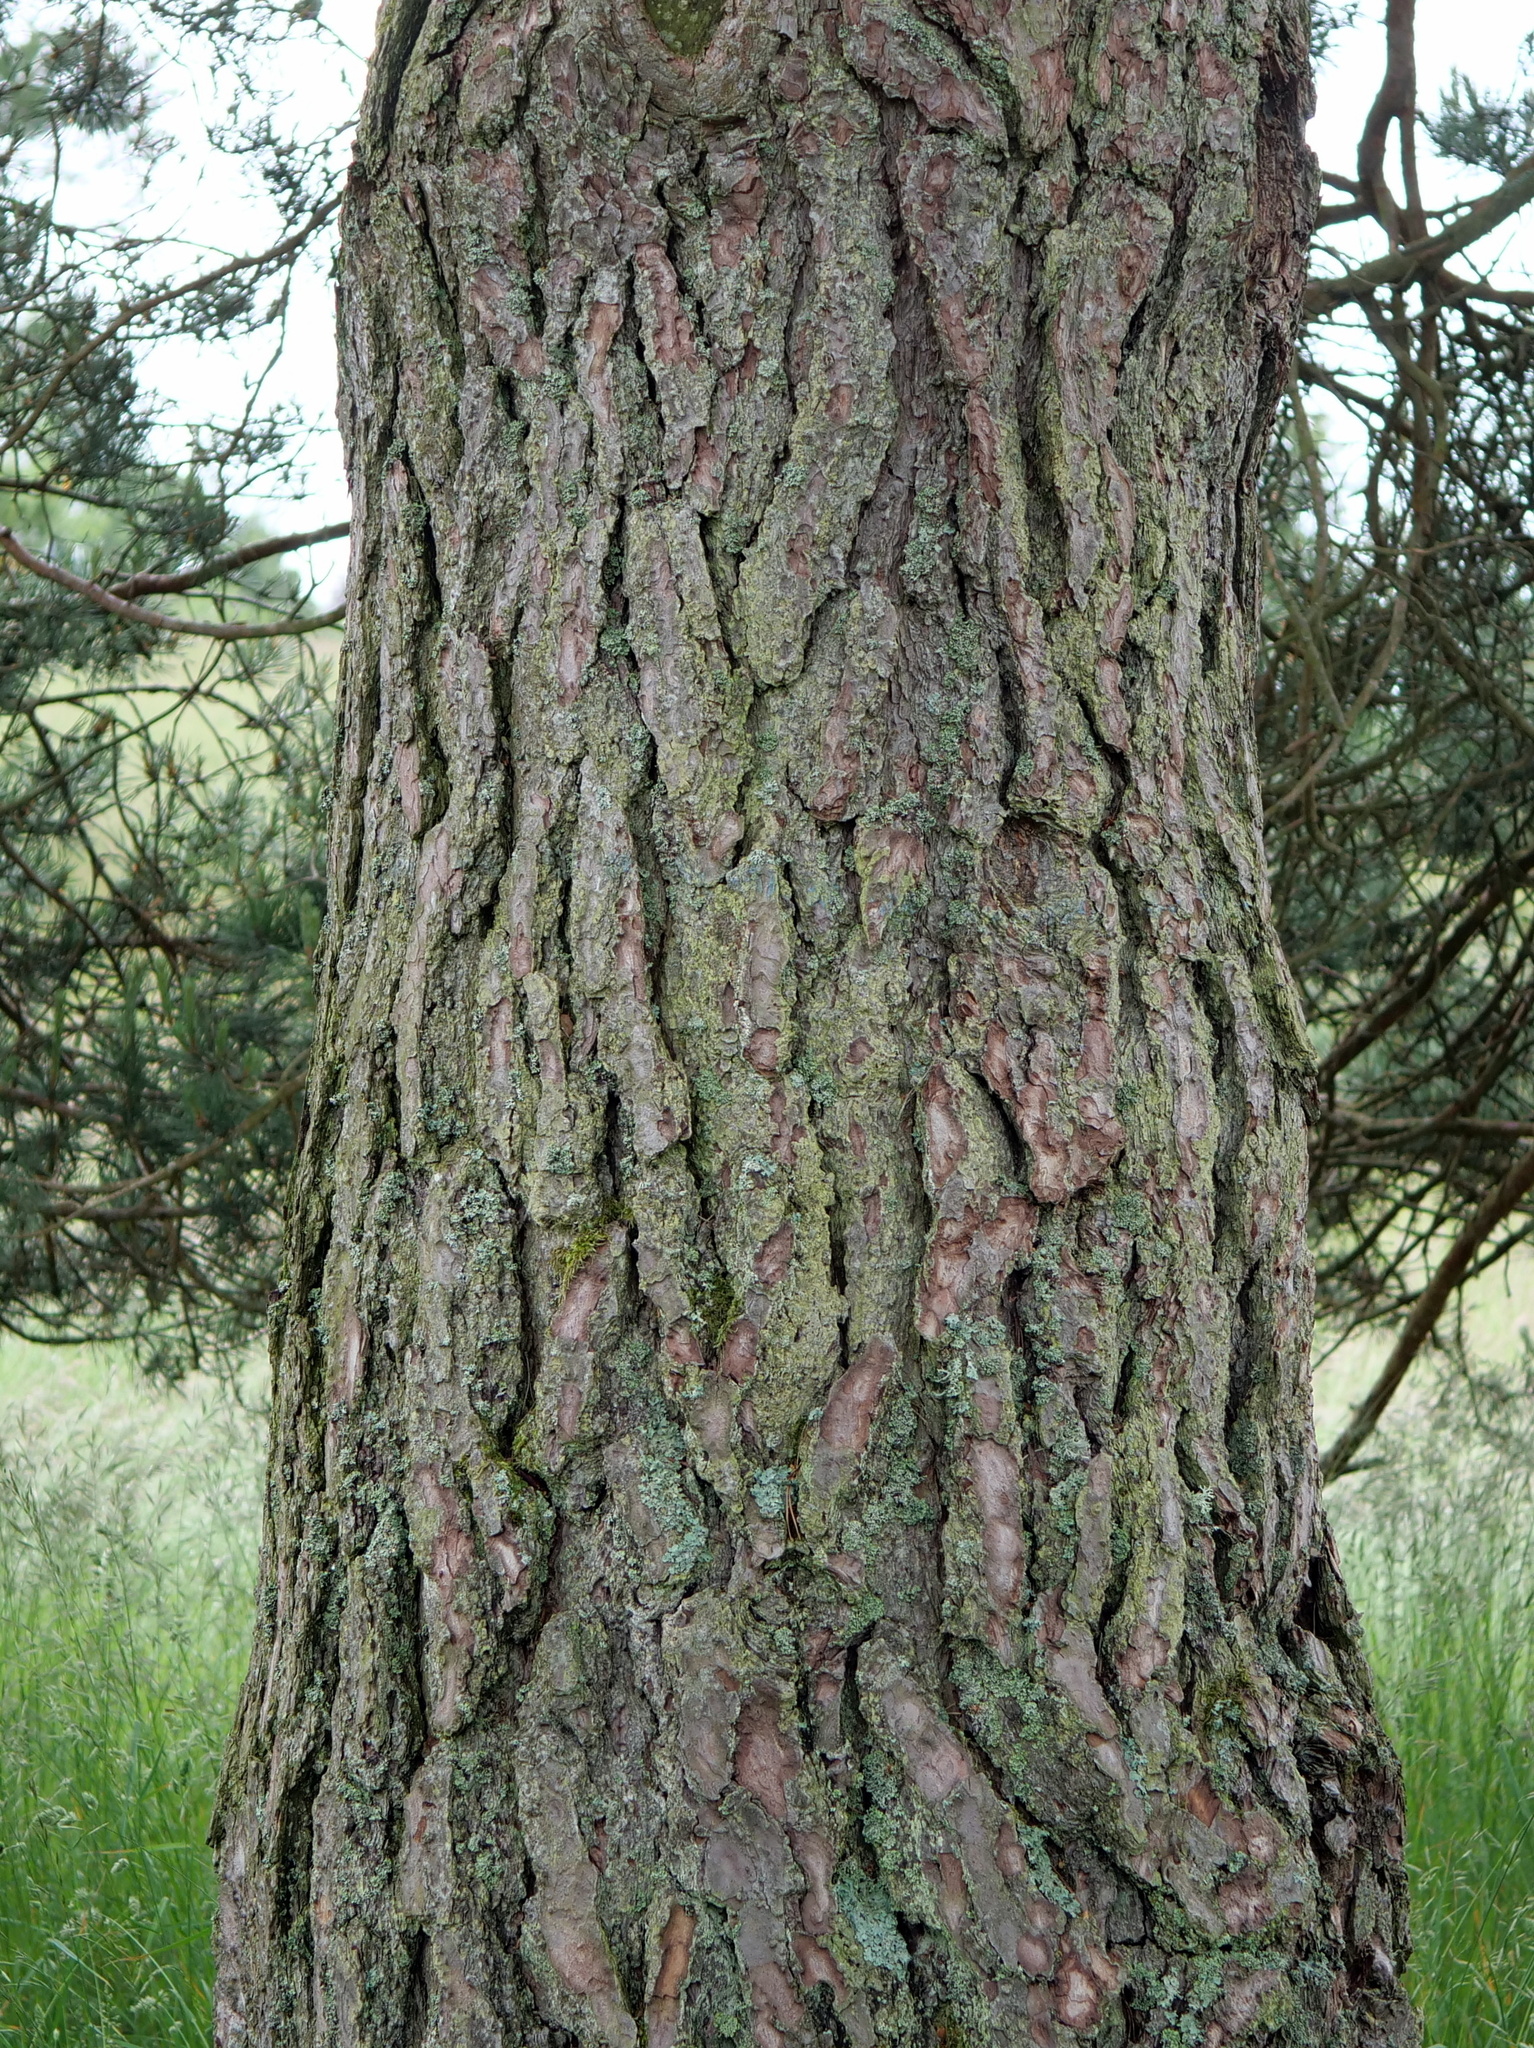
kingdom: Plantae
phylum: Tracheophyta
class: Pinopsida
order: Pinales
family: Pinaceae
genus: Pinus
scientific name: Pinus sylvestris
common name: Scots pine
